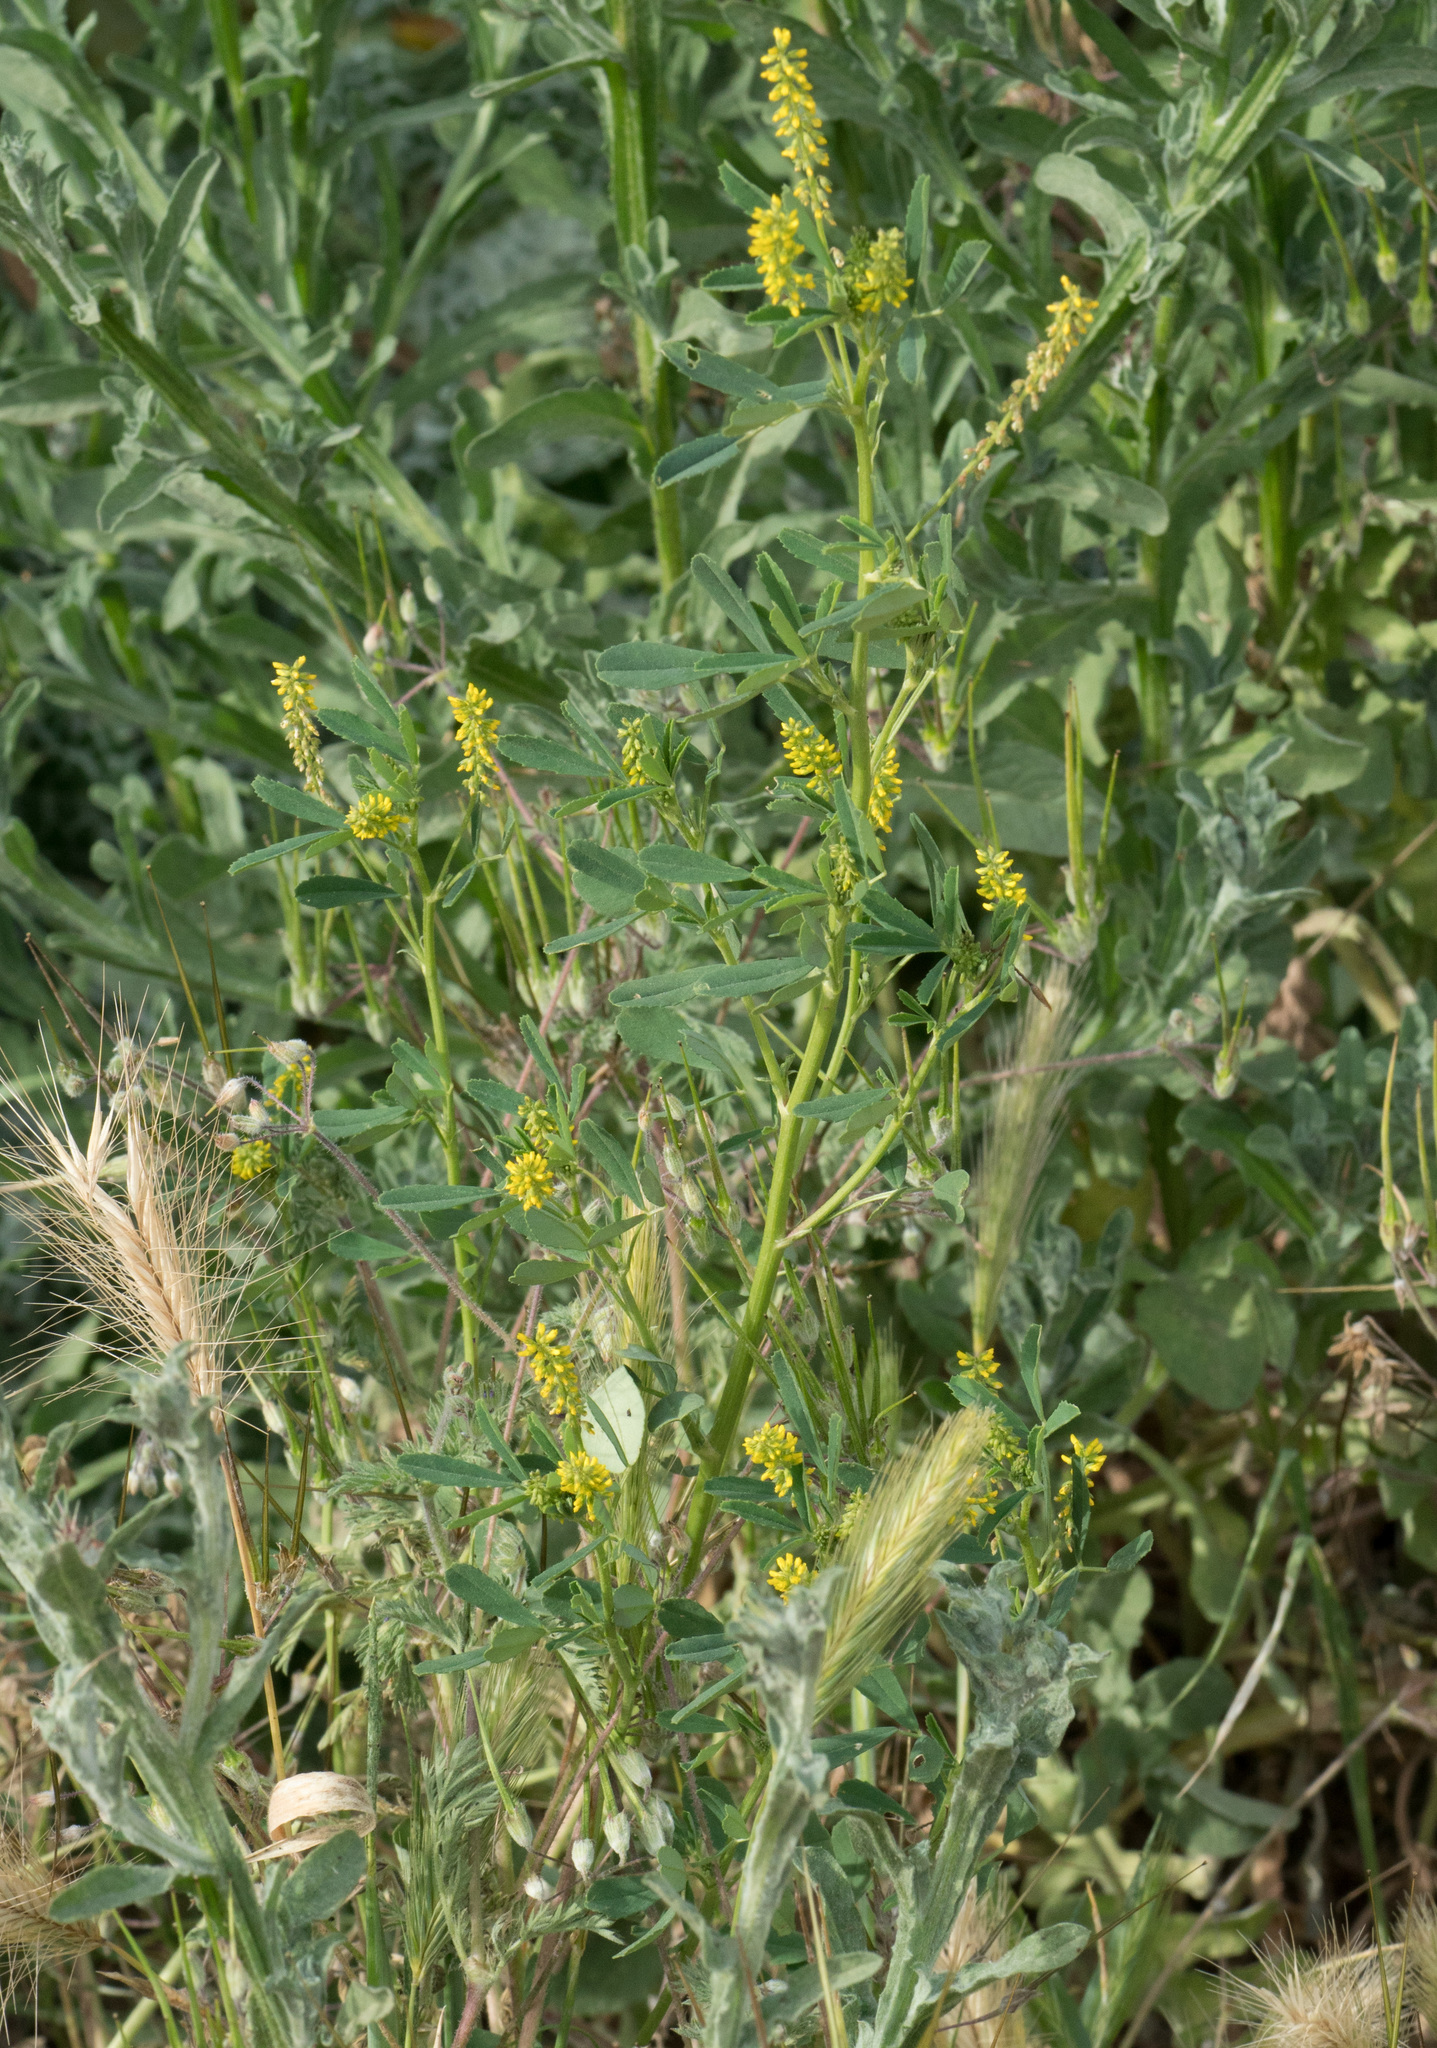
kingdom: Plantae
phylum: Tracheophyta
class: Magnoliopsida
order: Fabales
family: Fabaceae
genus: Melilotus
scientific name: Melilotus indicus
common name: Small melilot
